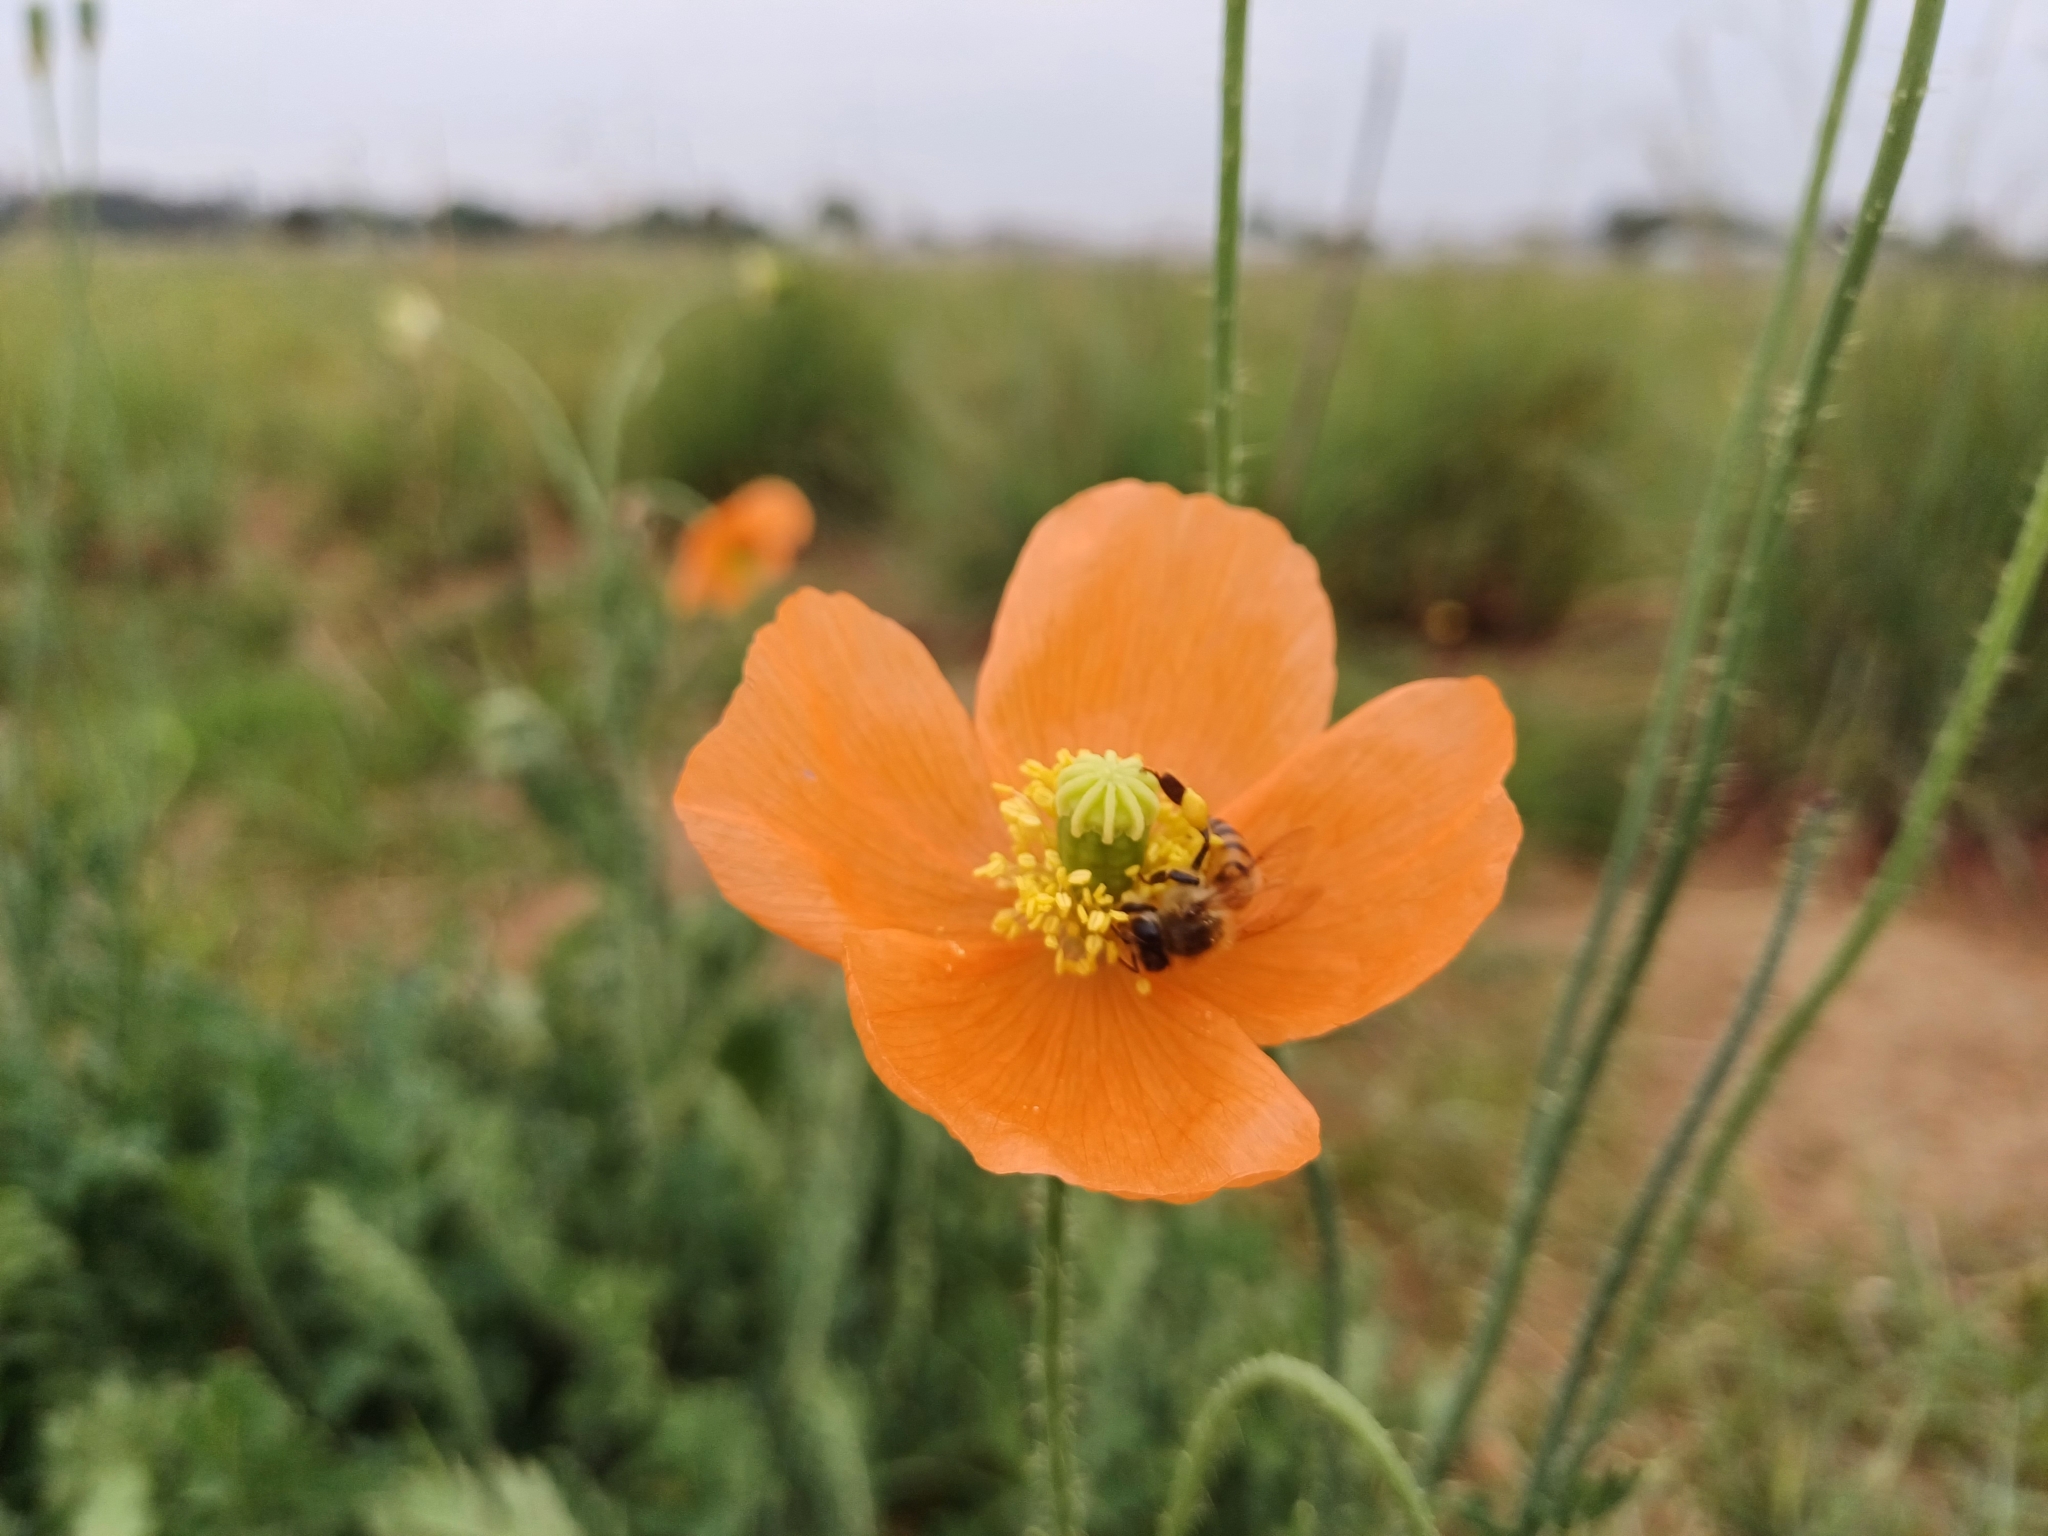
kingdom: Plantae
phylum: Tracheophyta
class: Magnoliopsida
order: Ranunculales
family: Papaveraceae
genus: Papaver
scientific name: Papaver aculeatum
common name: Bristle poppy
